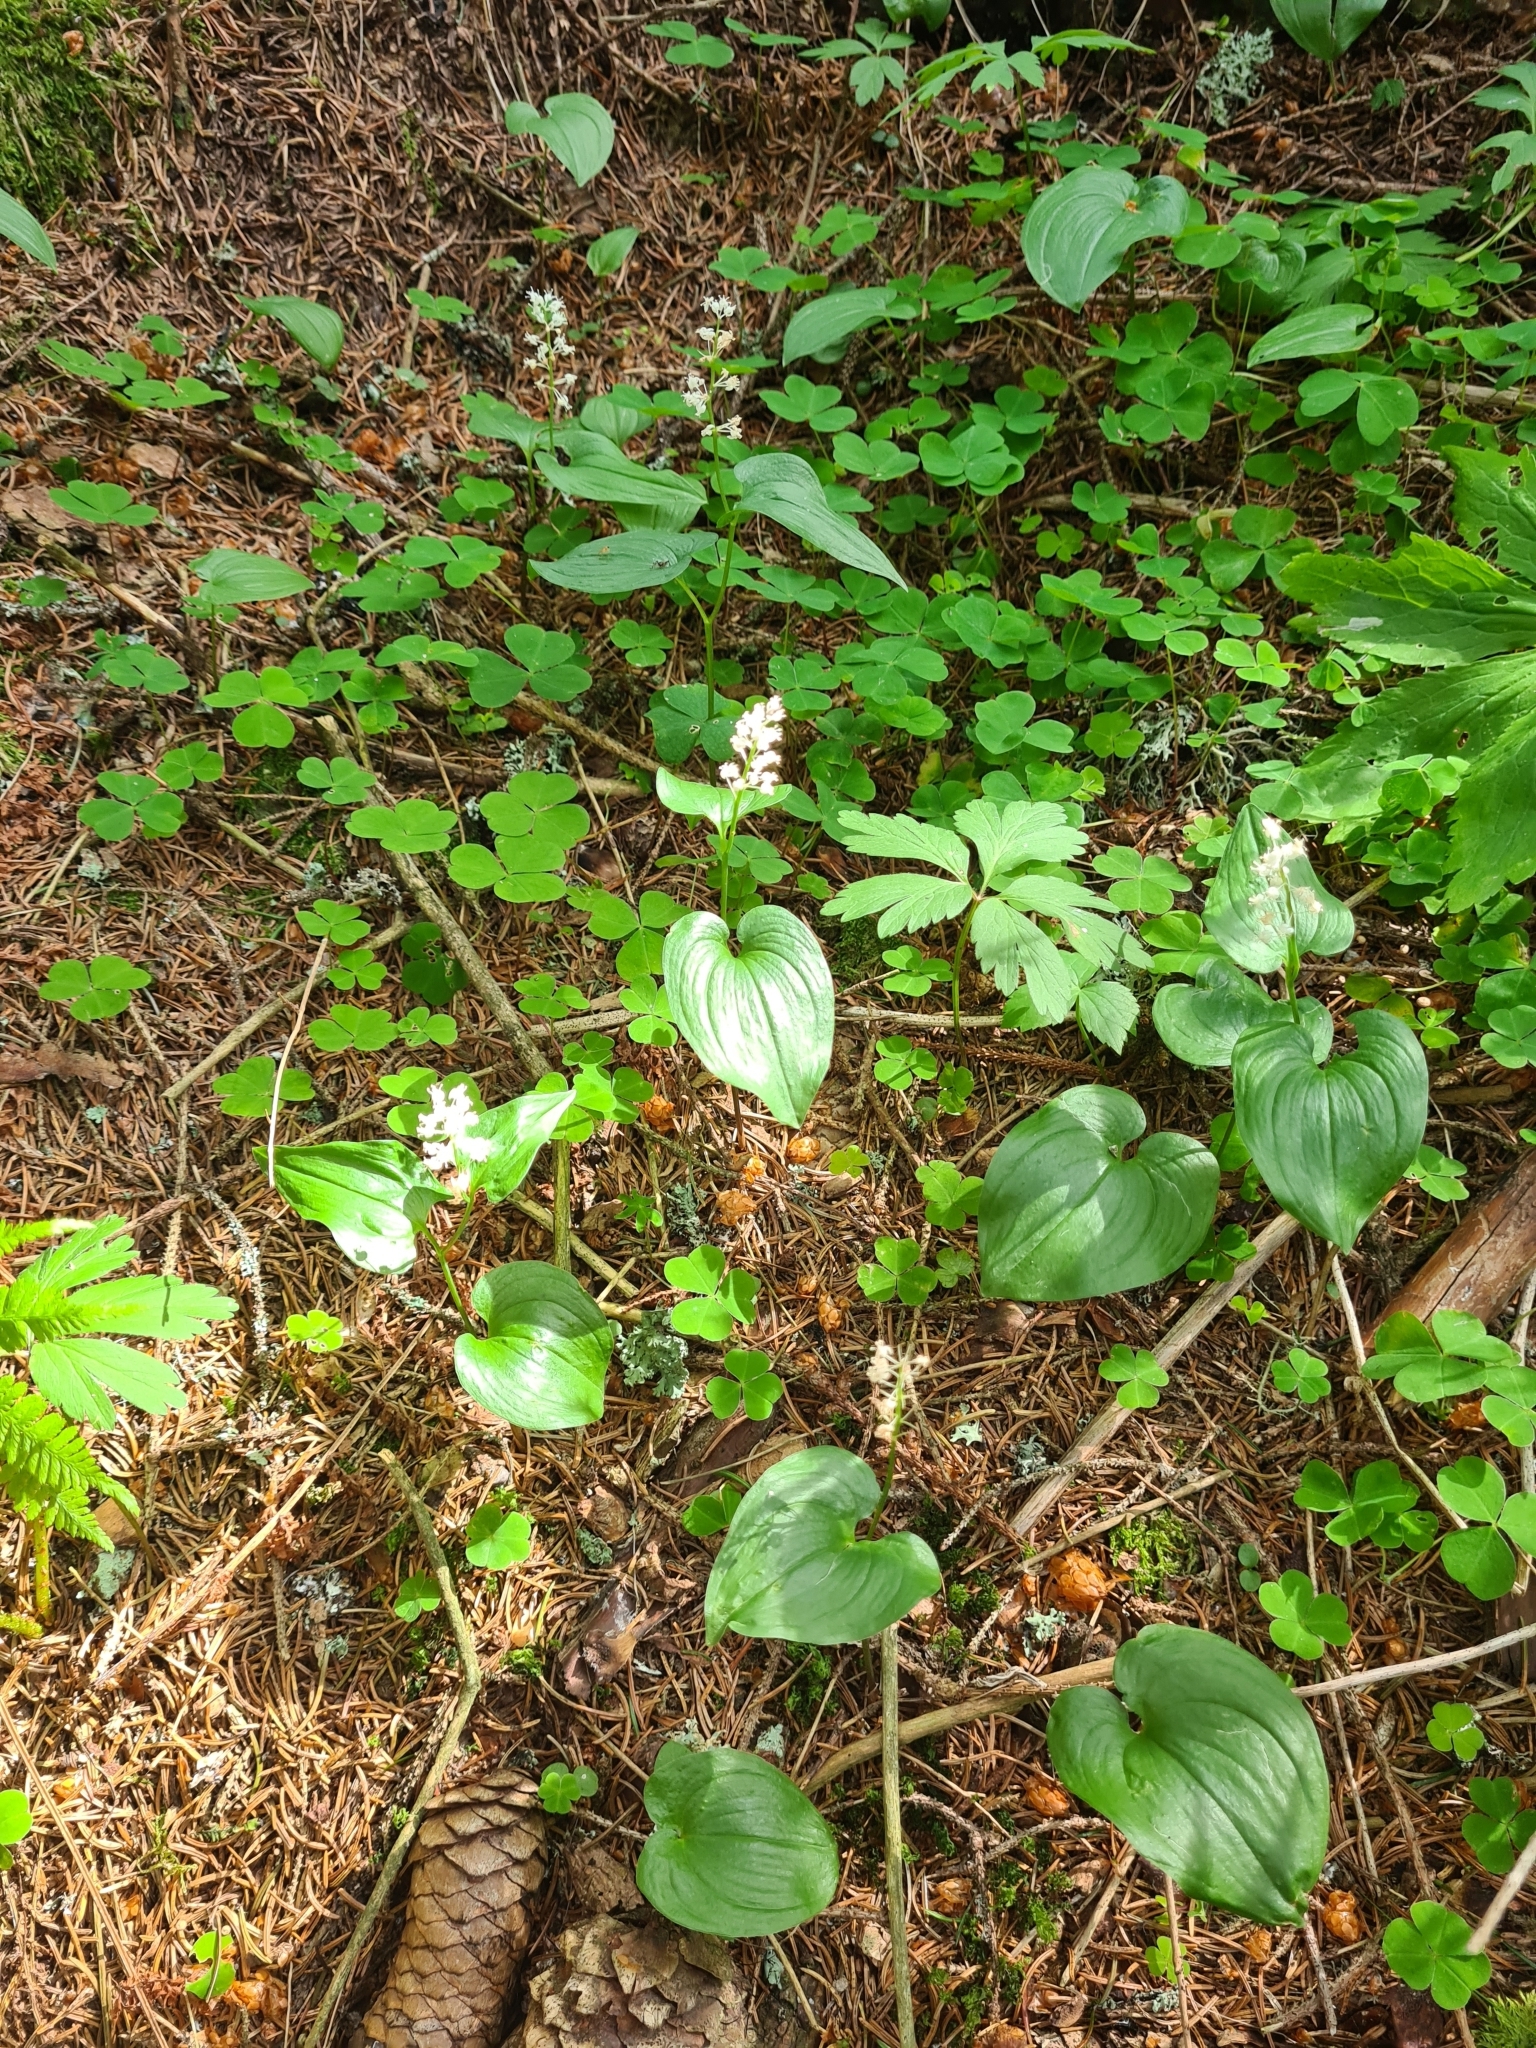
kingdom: Plantae
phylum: Tracheophyta
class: Liliopsida
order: Asparagales
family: Asparagaceae
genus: Maianthemum
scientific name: Maianthemum bifolium
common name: May lily
